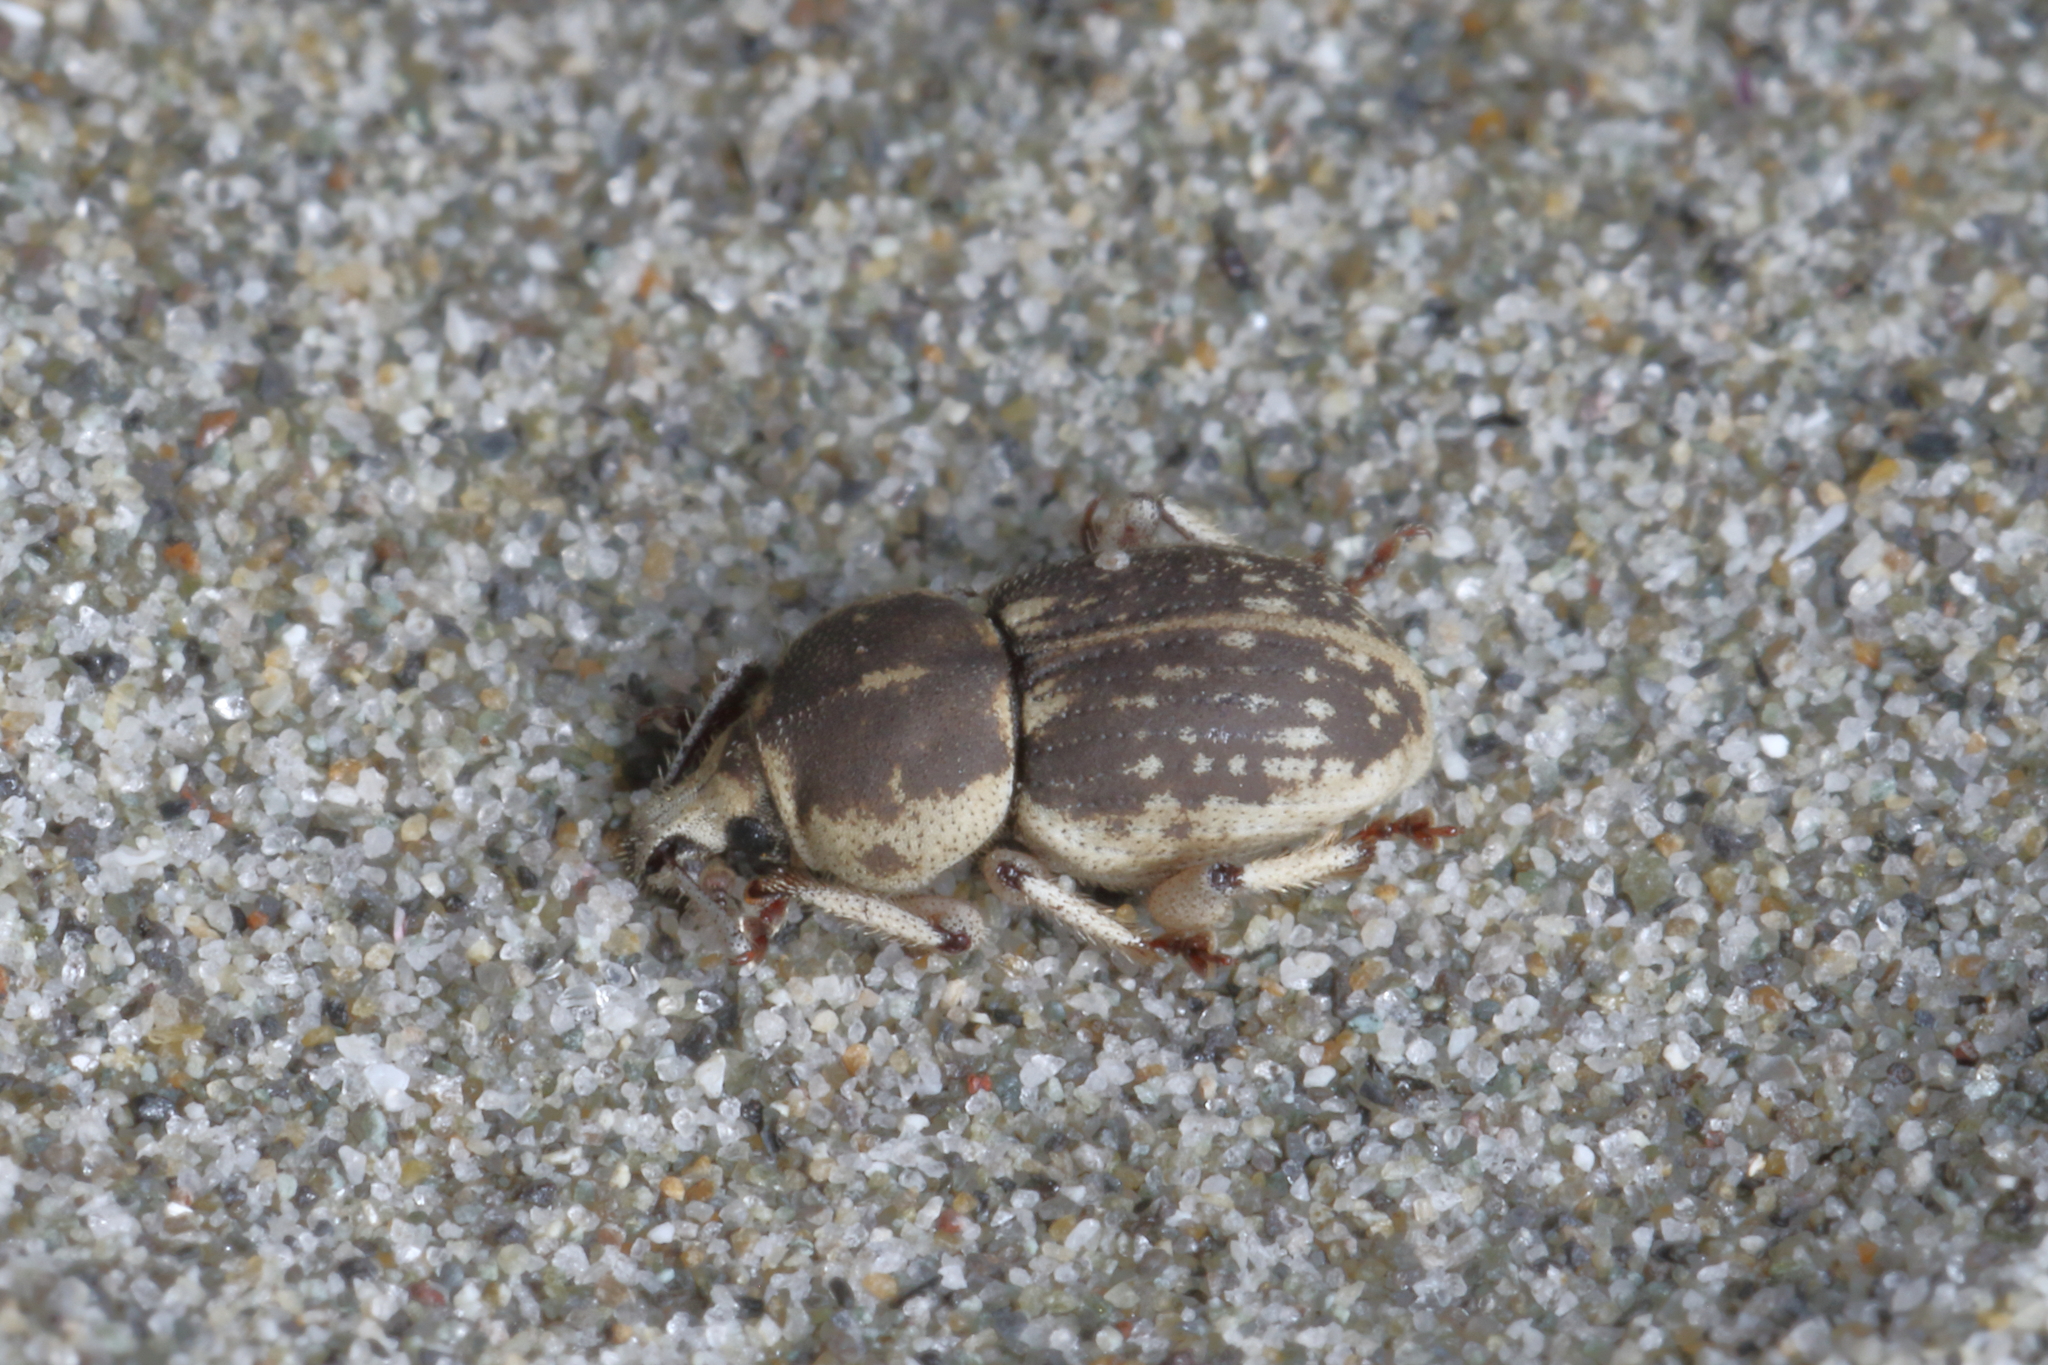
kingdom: Animalia
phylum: Arthropoda
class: Insecta
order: Coleoptera
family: Curculionidae
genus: Cecyropa
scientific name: Cecyropa modesta
